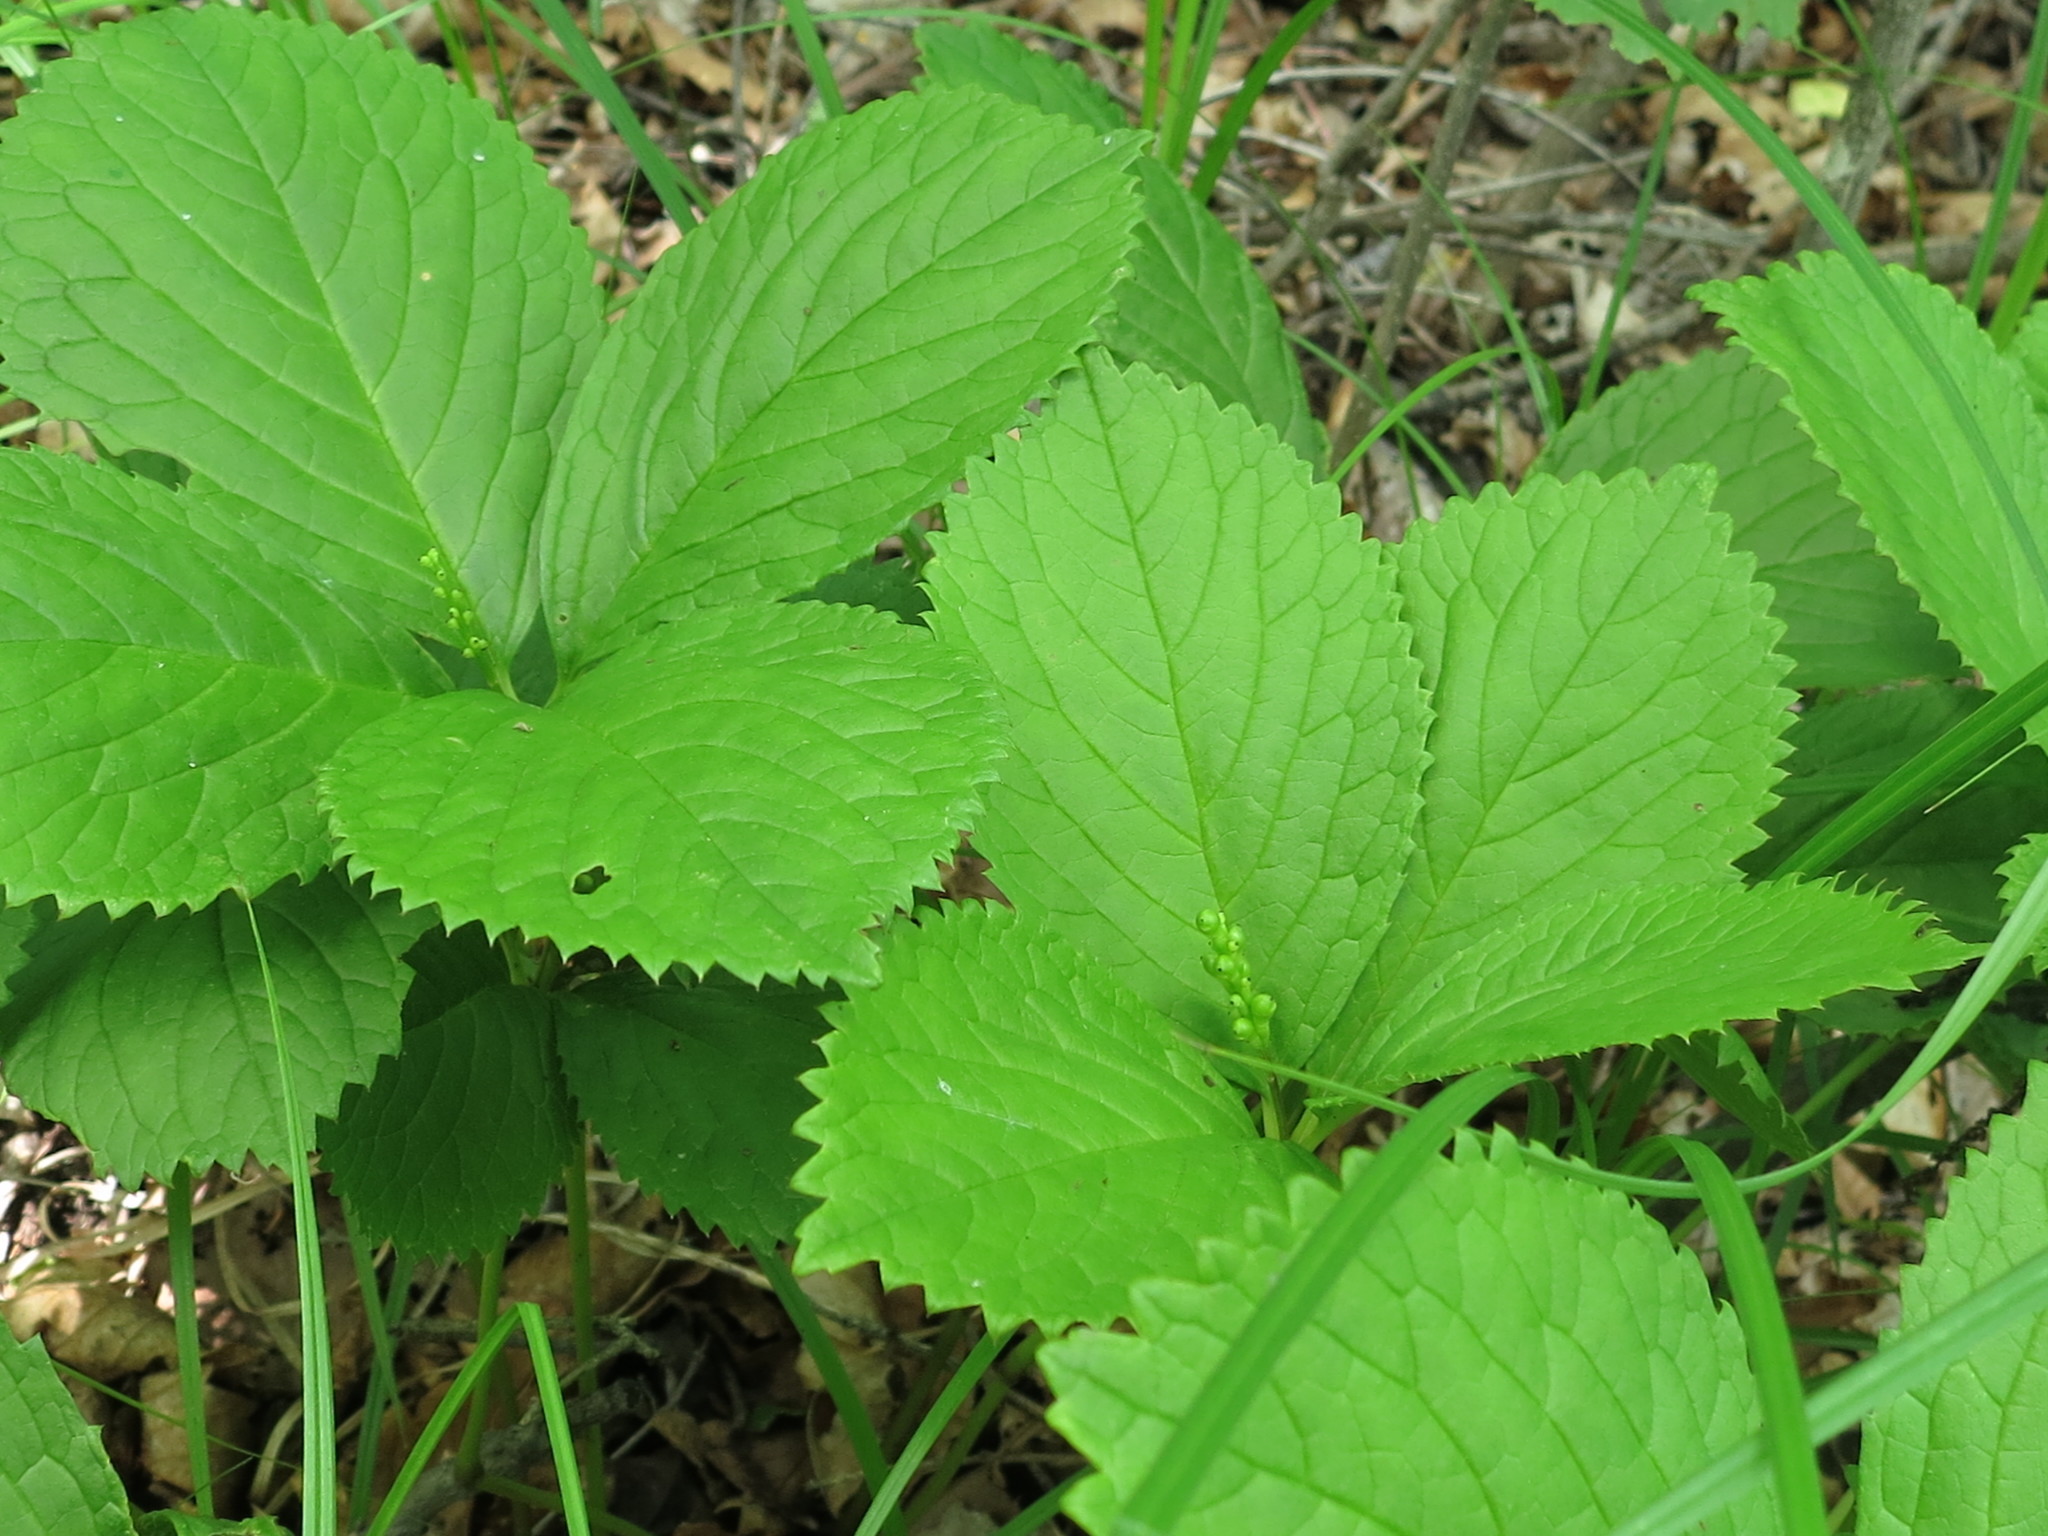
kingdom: Plantae
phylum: Tracheophyta
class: Magnoliopsida
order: Chloranthales
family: Chloranthaceae
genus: Chloranthus
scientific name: Chloranthus quadrifolius
